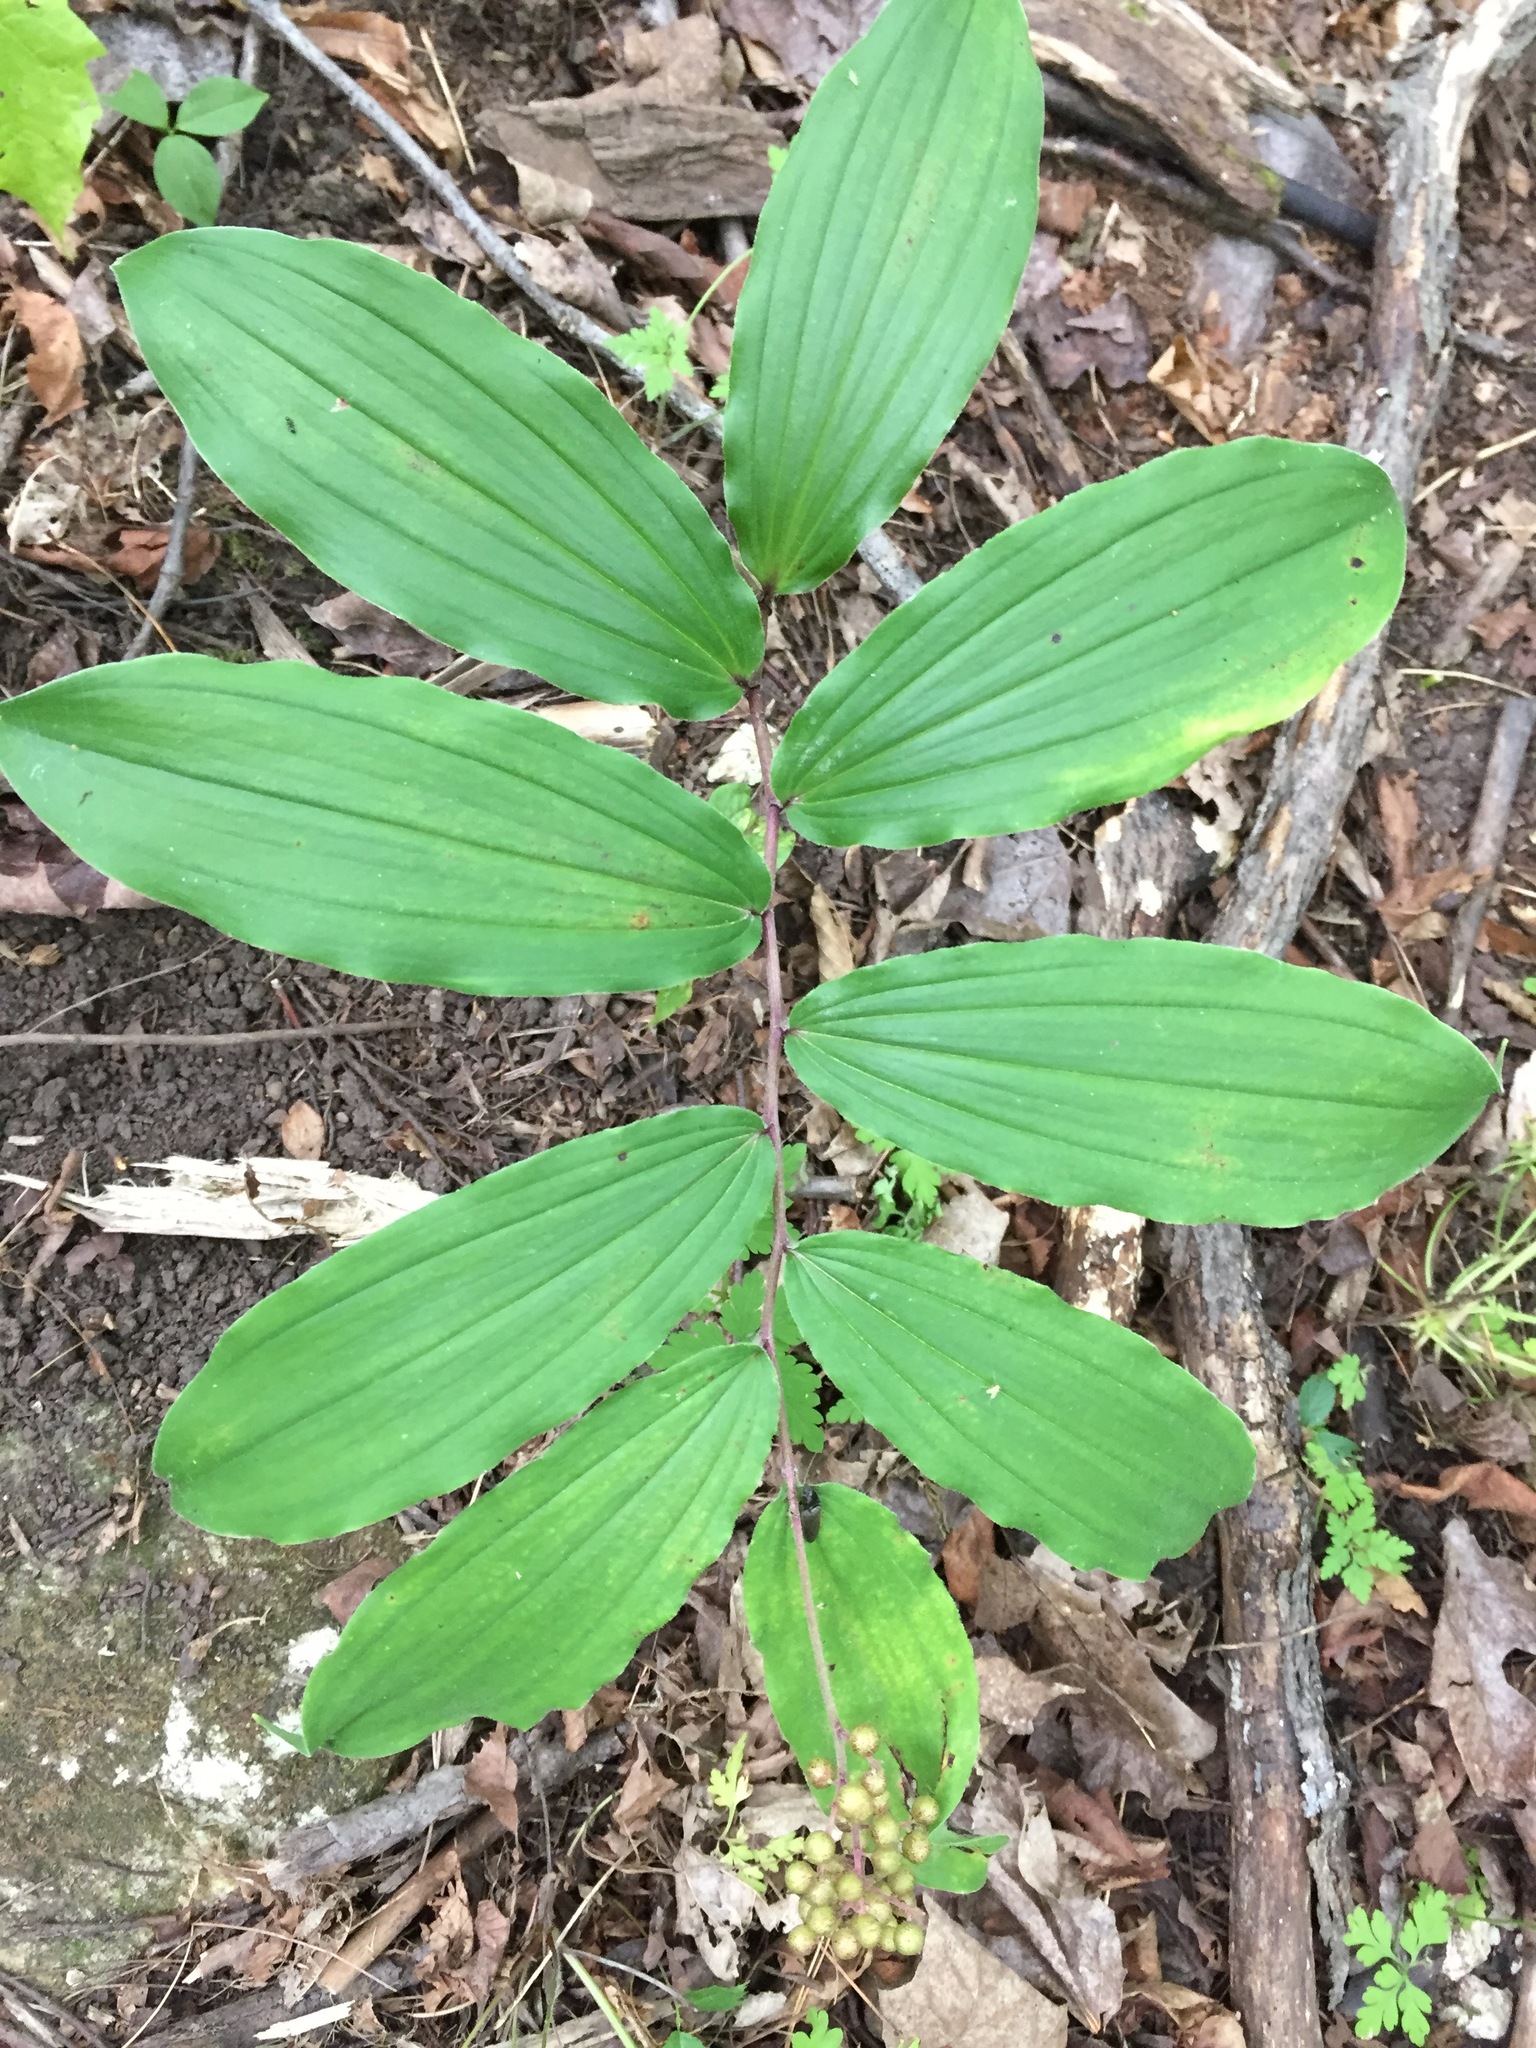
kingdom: Plantae
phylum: Tracheophyta
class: Liliopsida
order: Asparagales
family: Asparagaceae
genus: Maianthemum
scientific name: Maianthemum racemosum
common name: False spikenard
